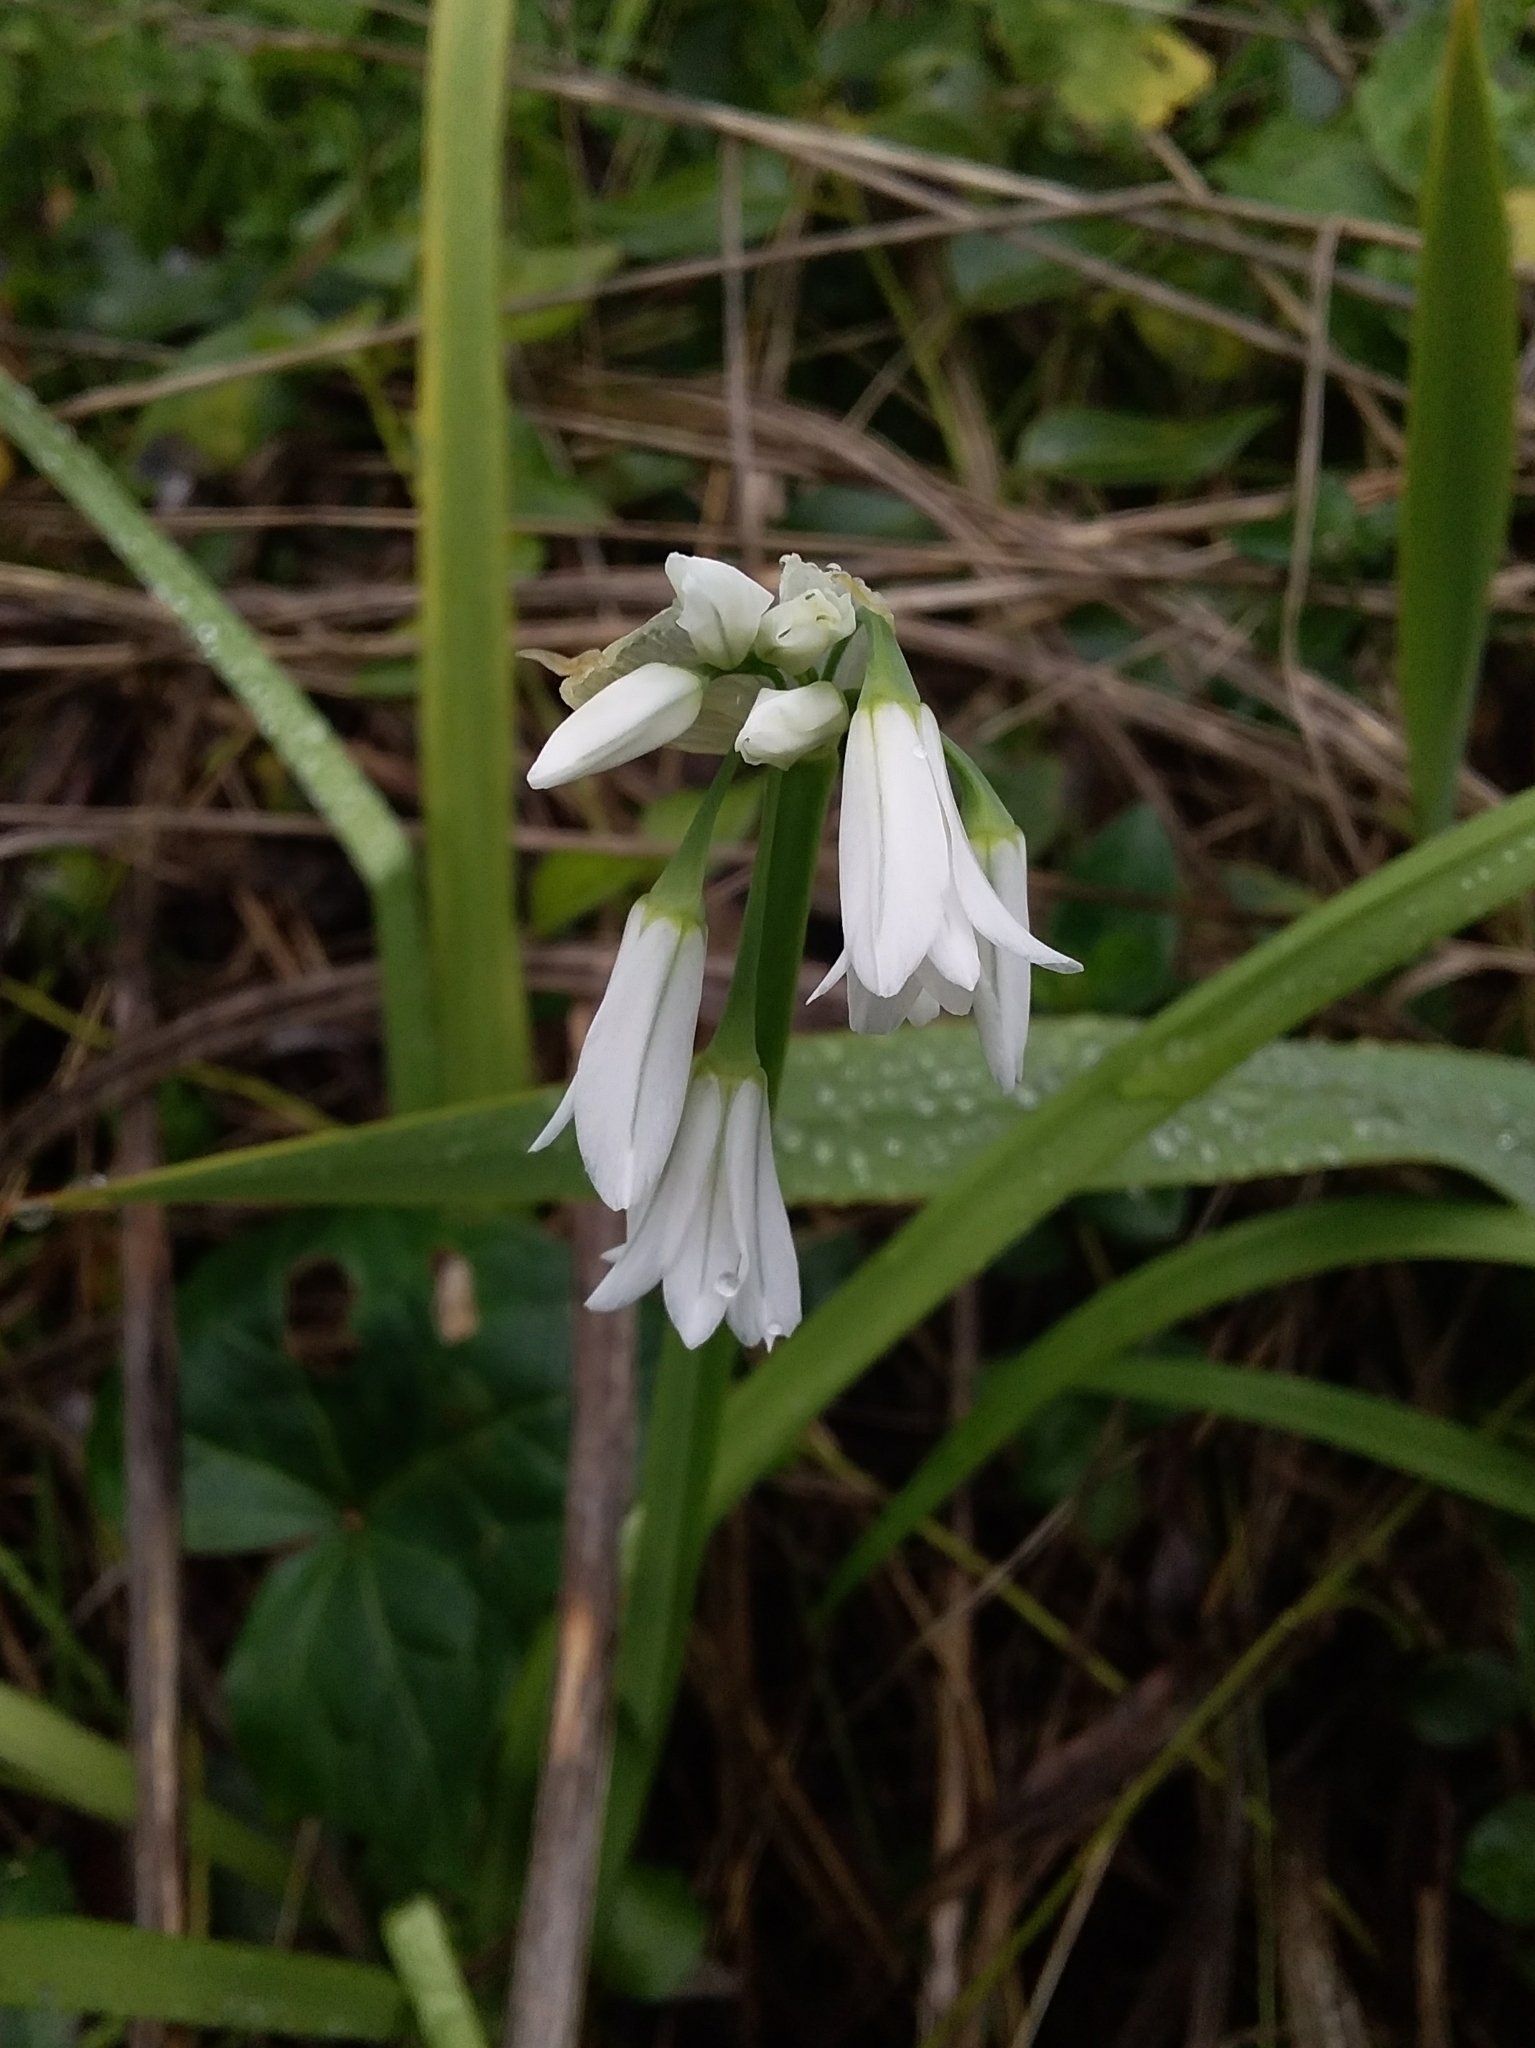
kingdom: Plantae
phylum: Tracheophyta
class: Liliopsida
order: Asparagales
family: Amaryllidaceae
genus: Allium
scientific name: Allium triquetrum
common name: Three-cornered garlic
